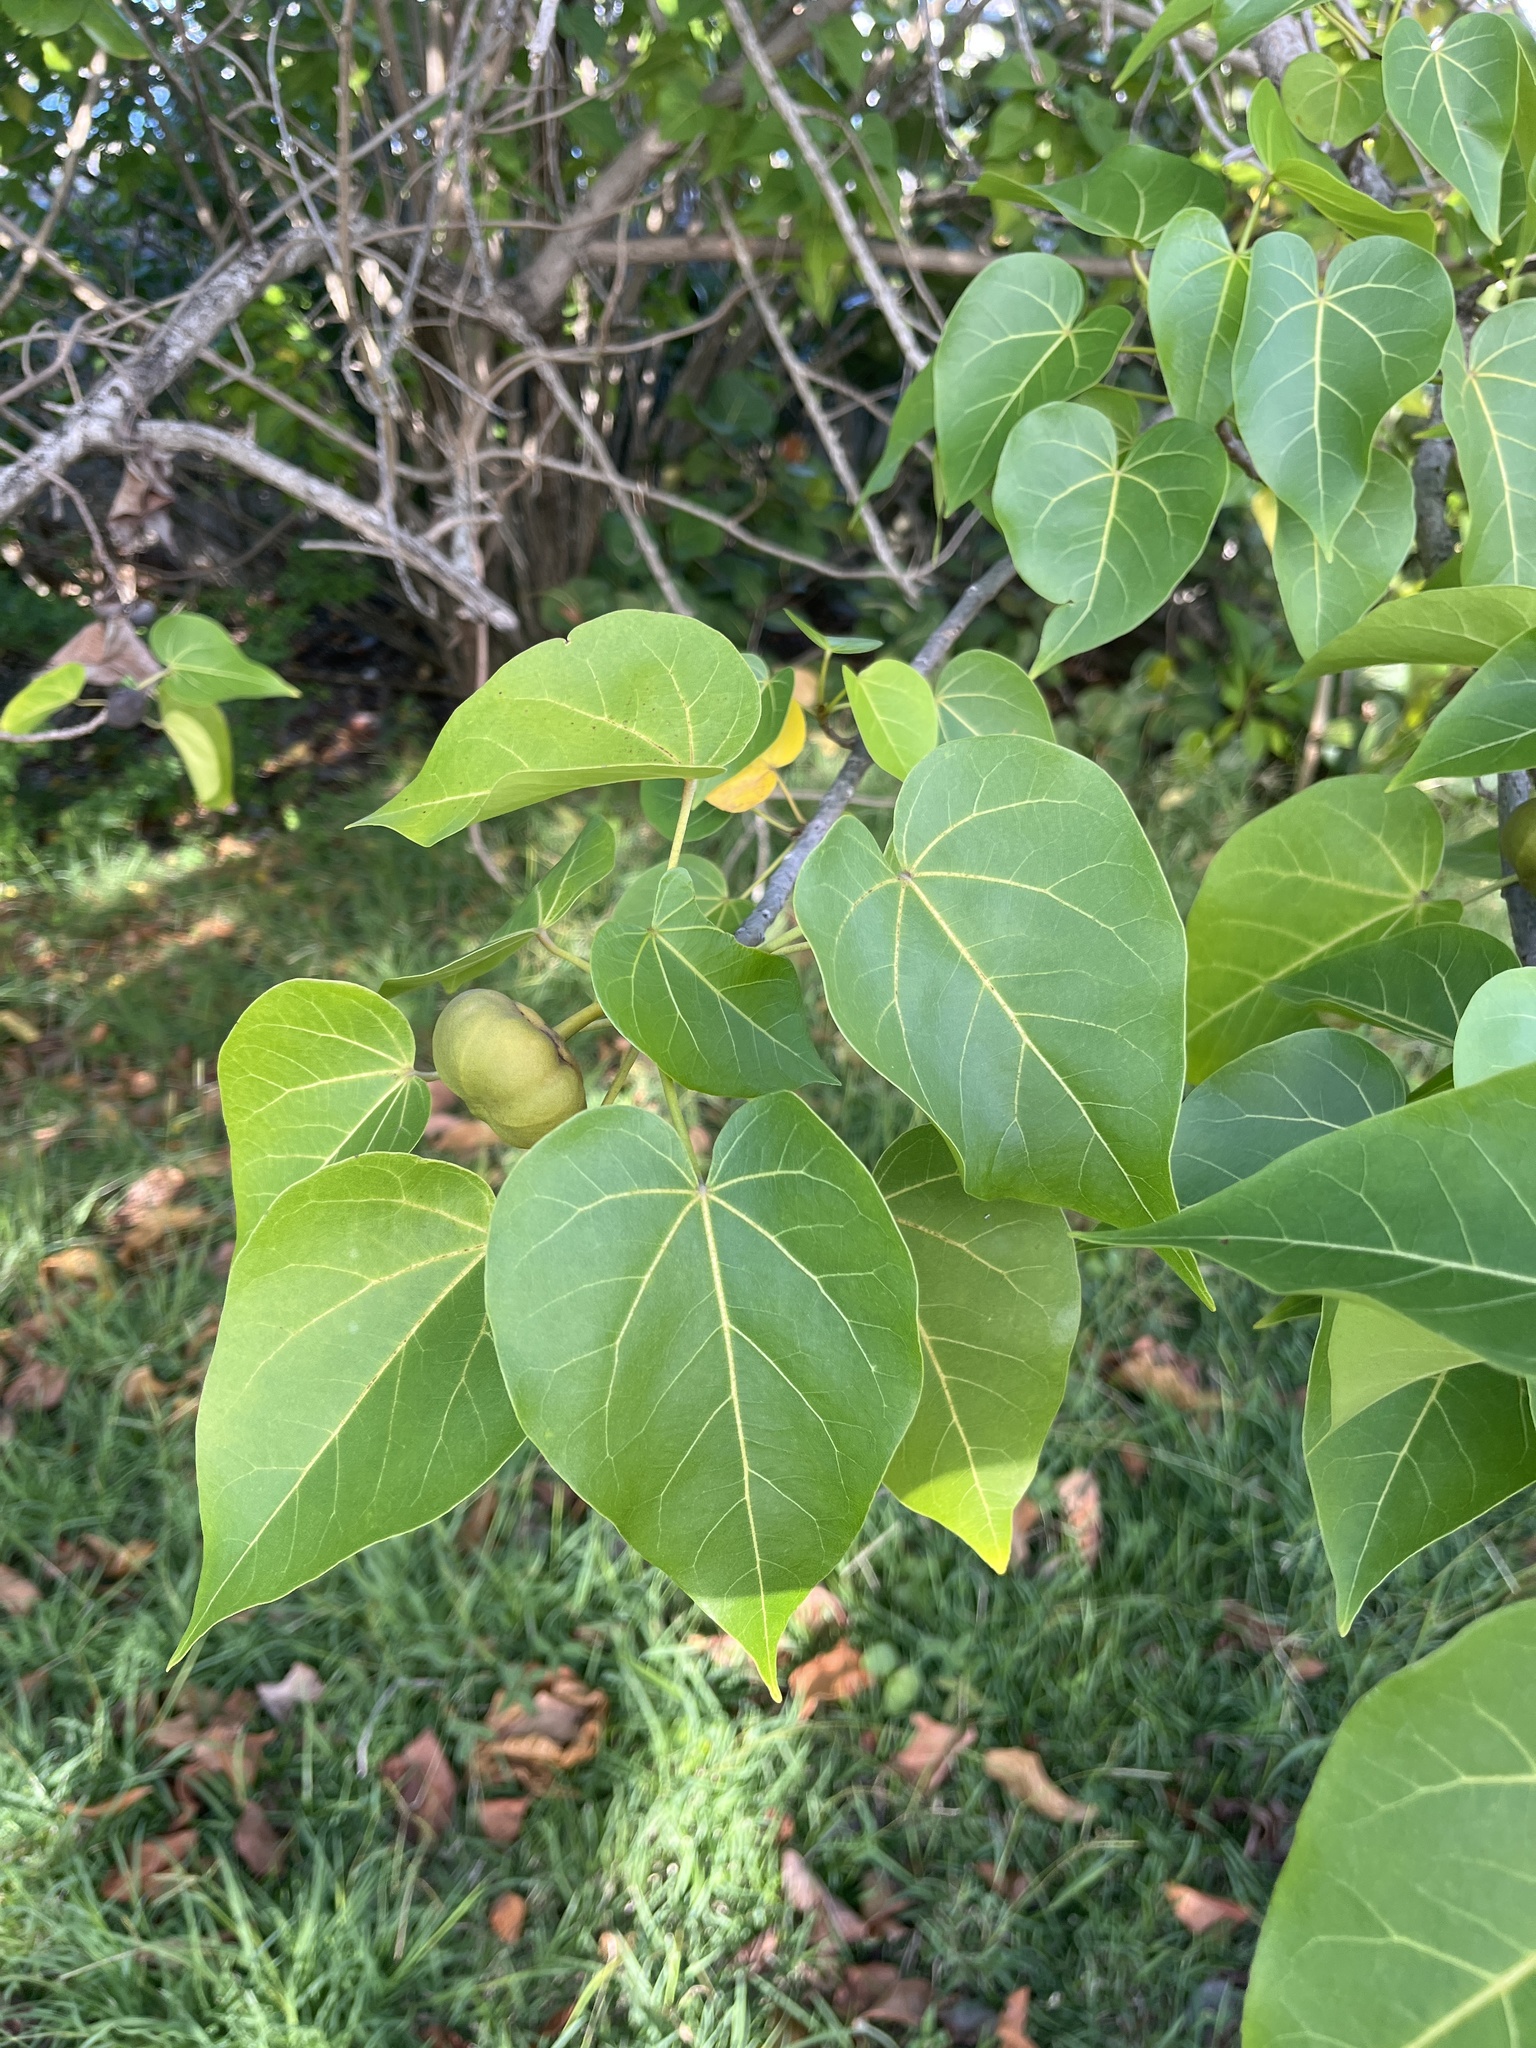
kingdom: Plantae
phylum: Tracheophyta
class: Magnoliopsida
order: Malvales
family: Malvaceae
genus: Thespesia
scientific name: Thespesia populnea
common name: Seaside mahoe
